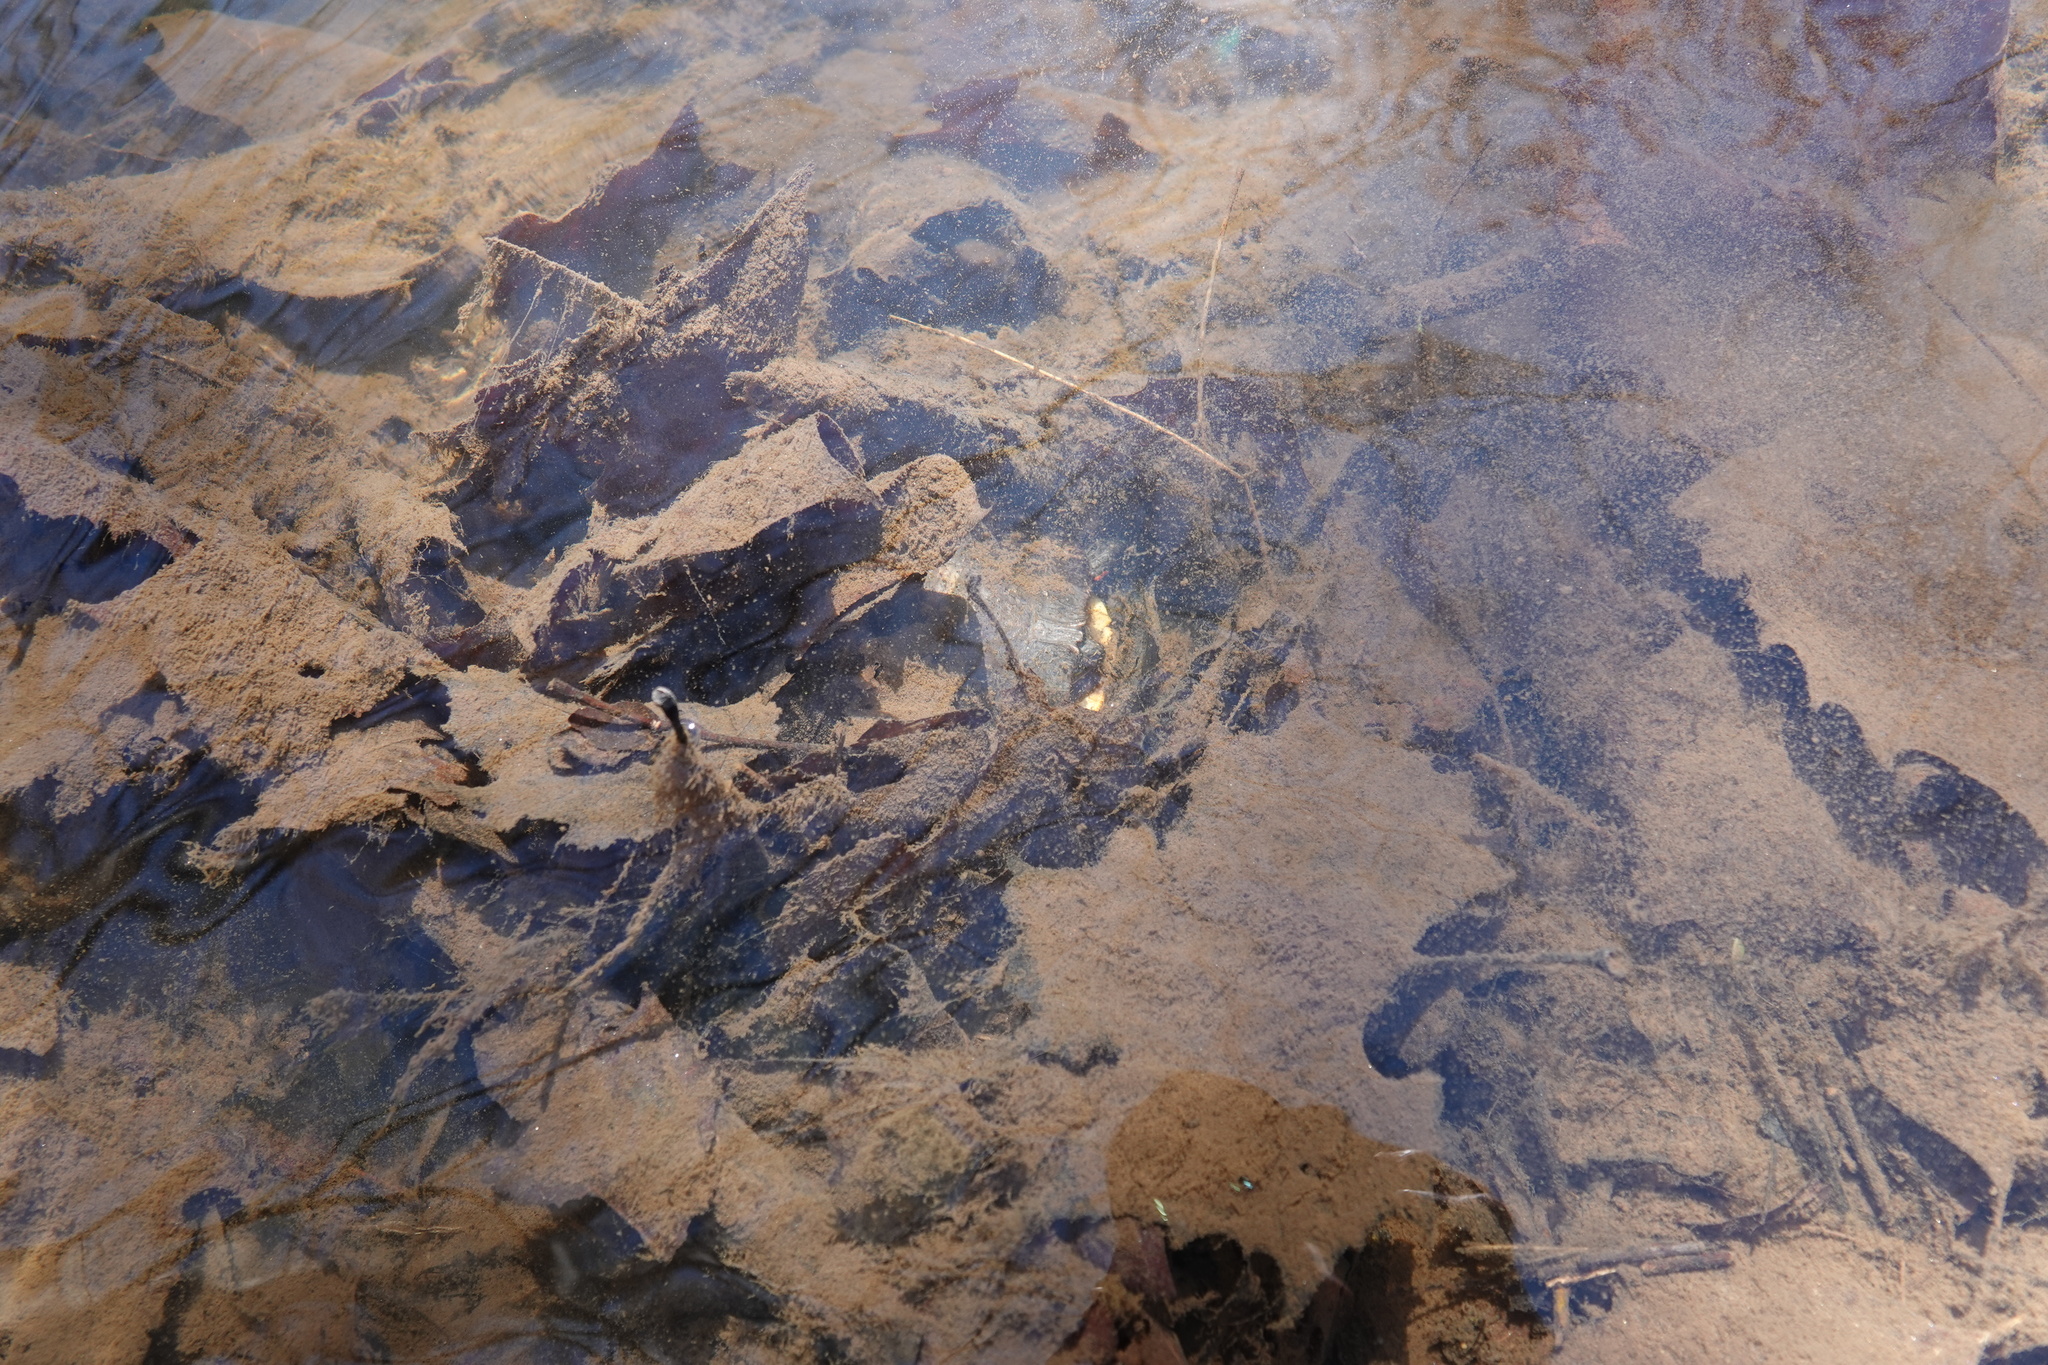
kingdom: Animalia
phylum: Chordata
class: Testudines
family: Emydidae
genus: Chrysemys
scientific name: Chrysemys picta
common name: Painted turtle
